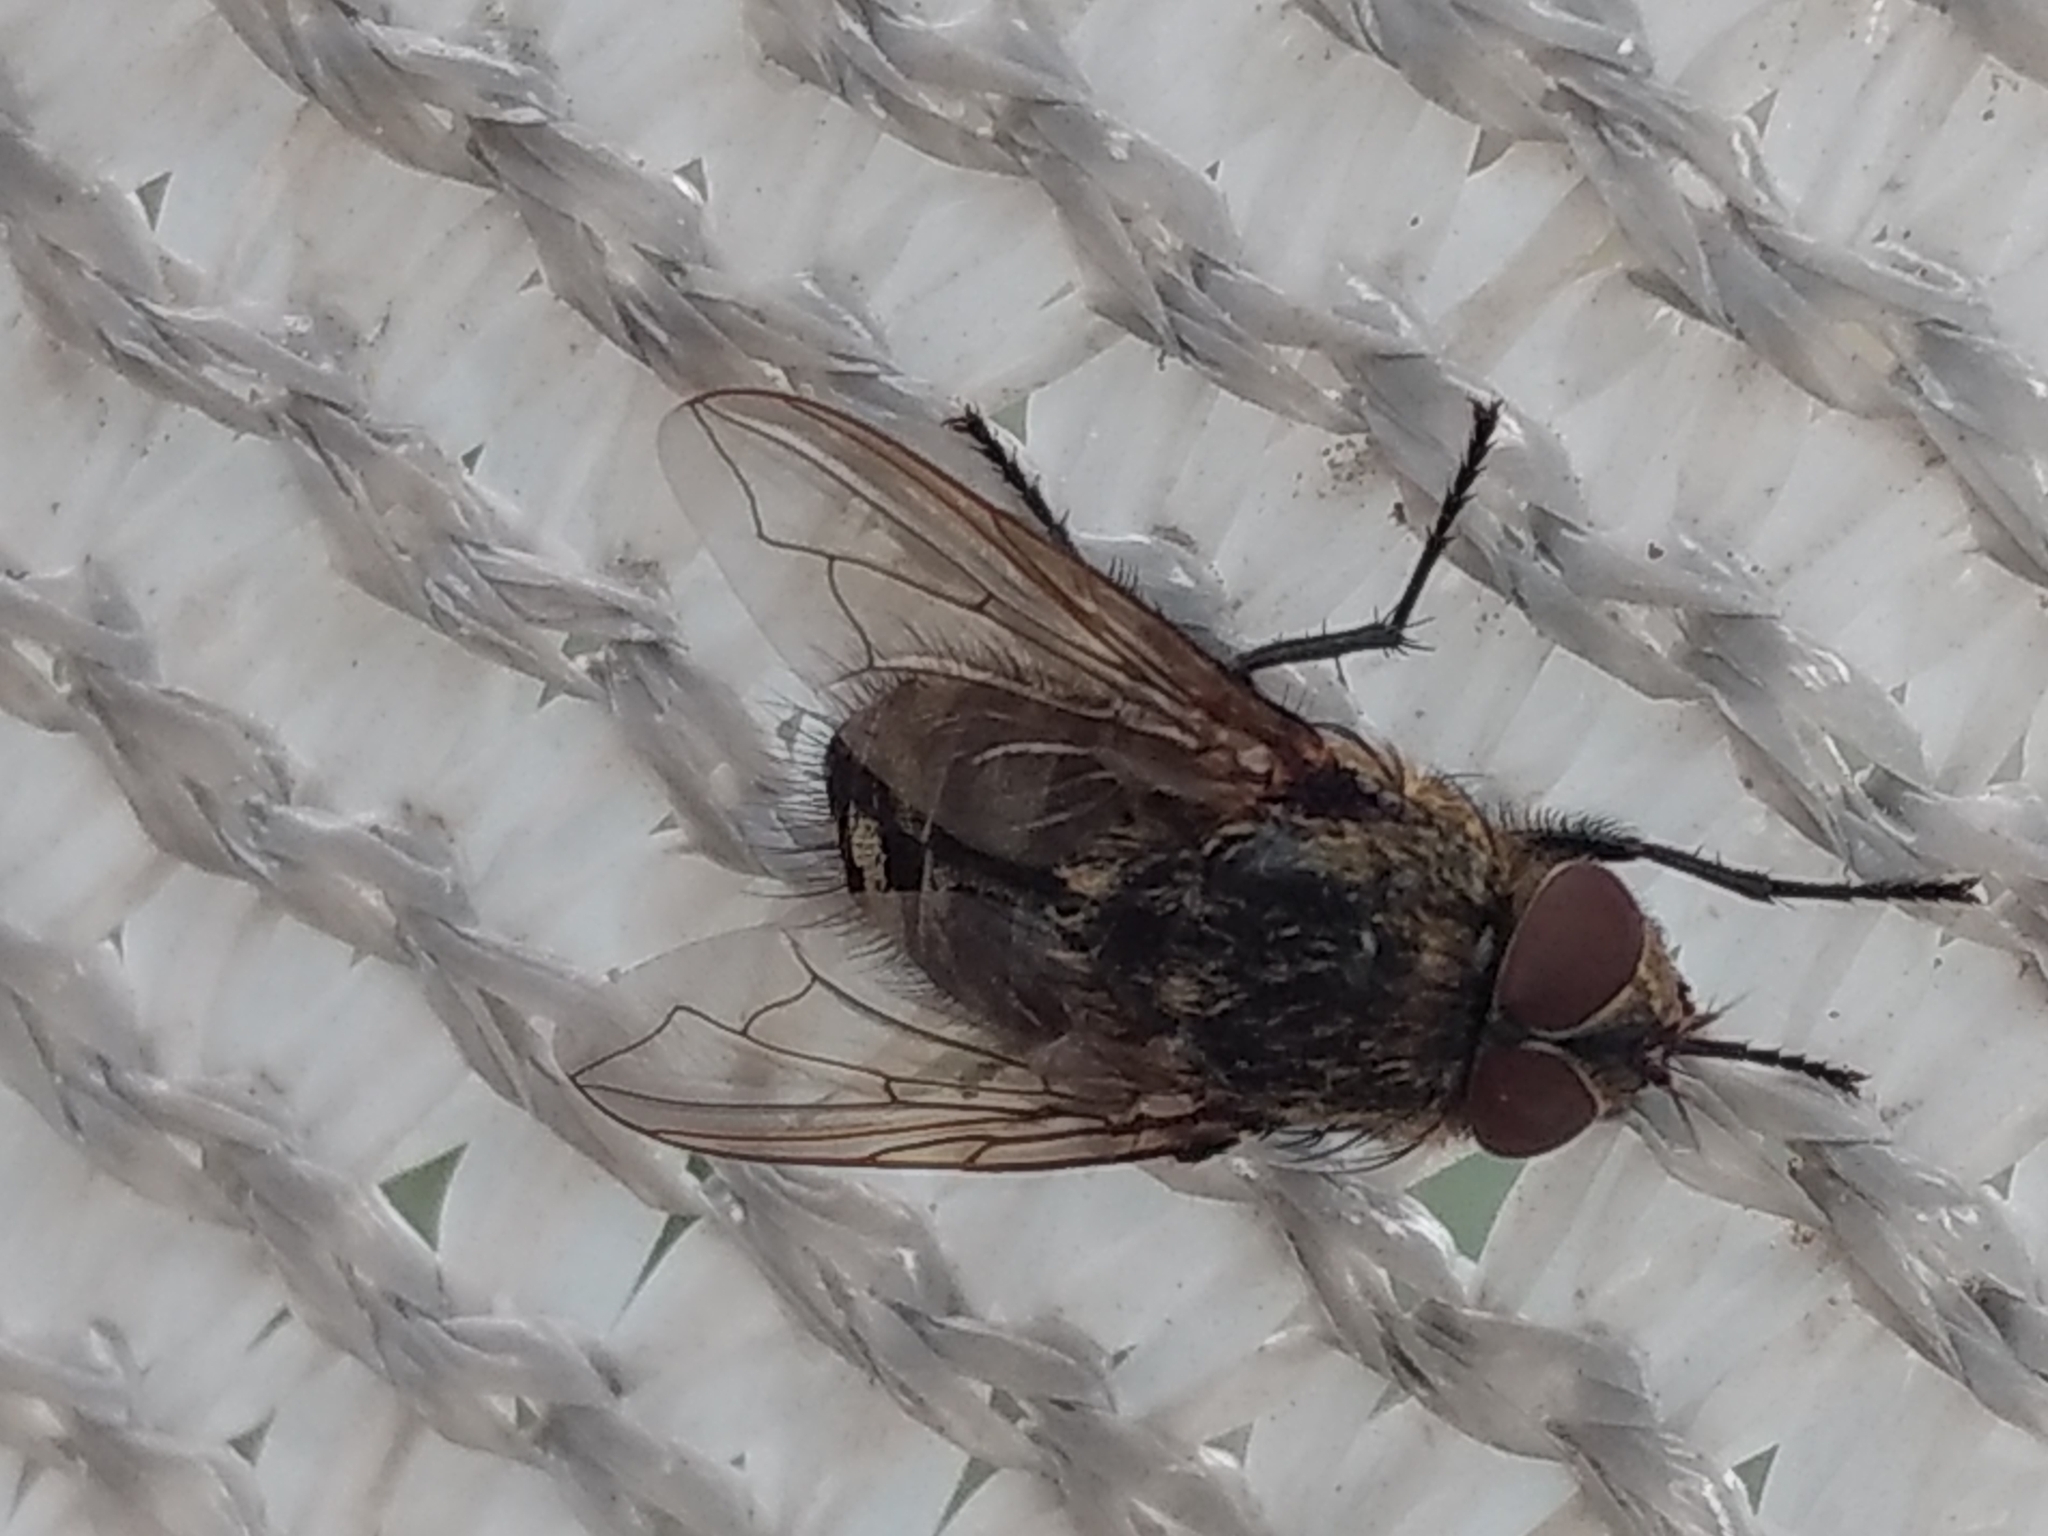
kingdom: Animalia
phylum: Arthropoda
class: Insecta
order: Diptera
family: Polleniidae
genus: Pollenia
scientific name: Pollenia
